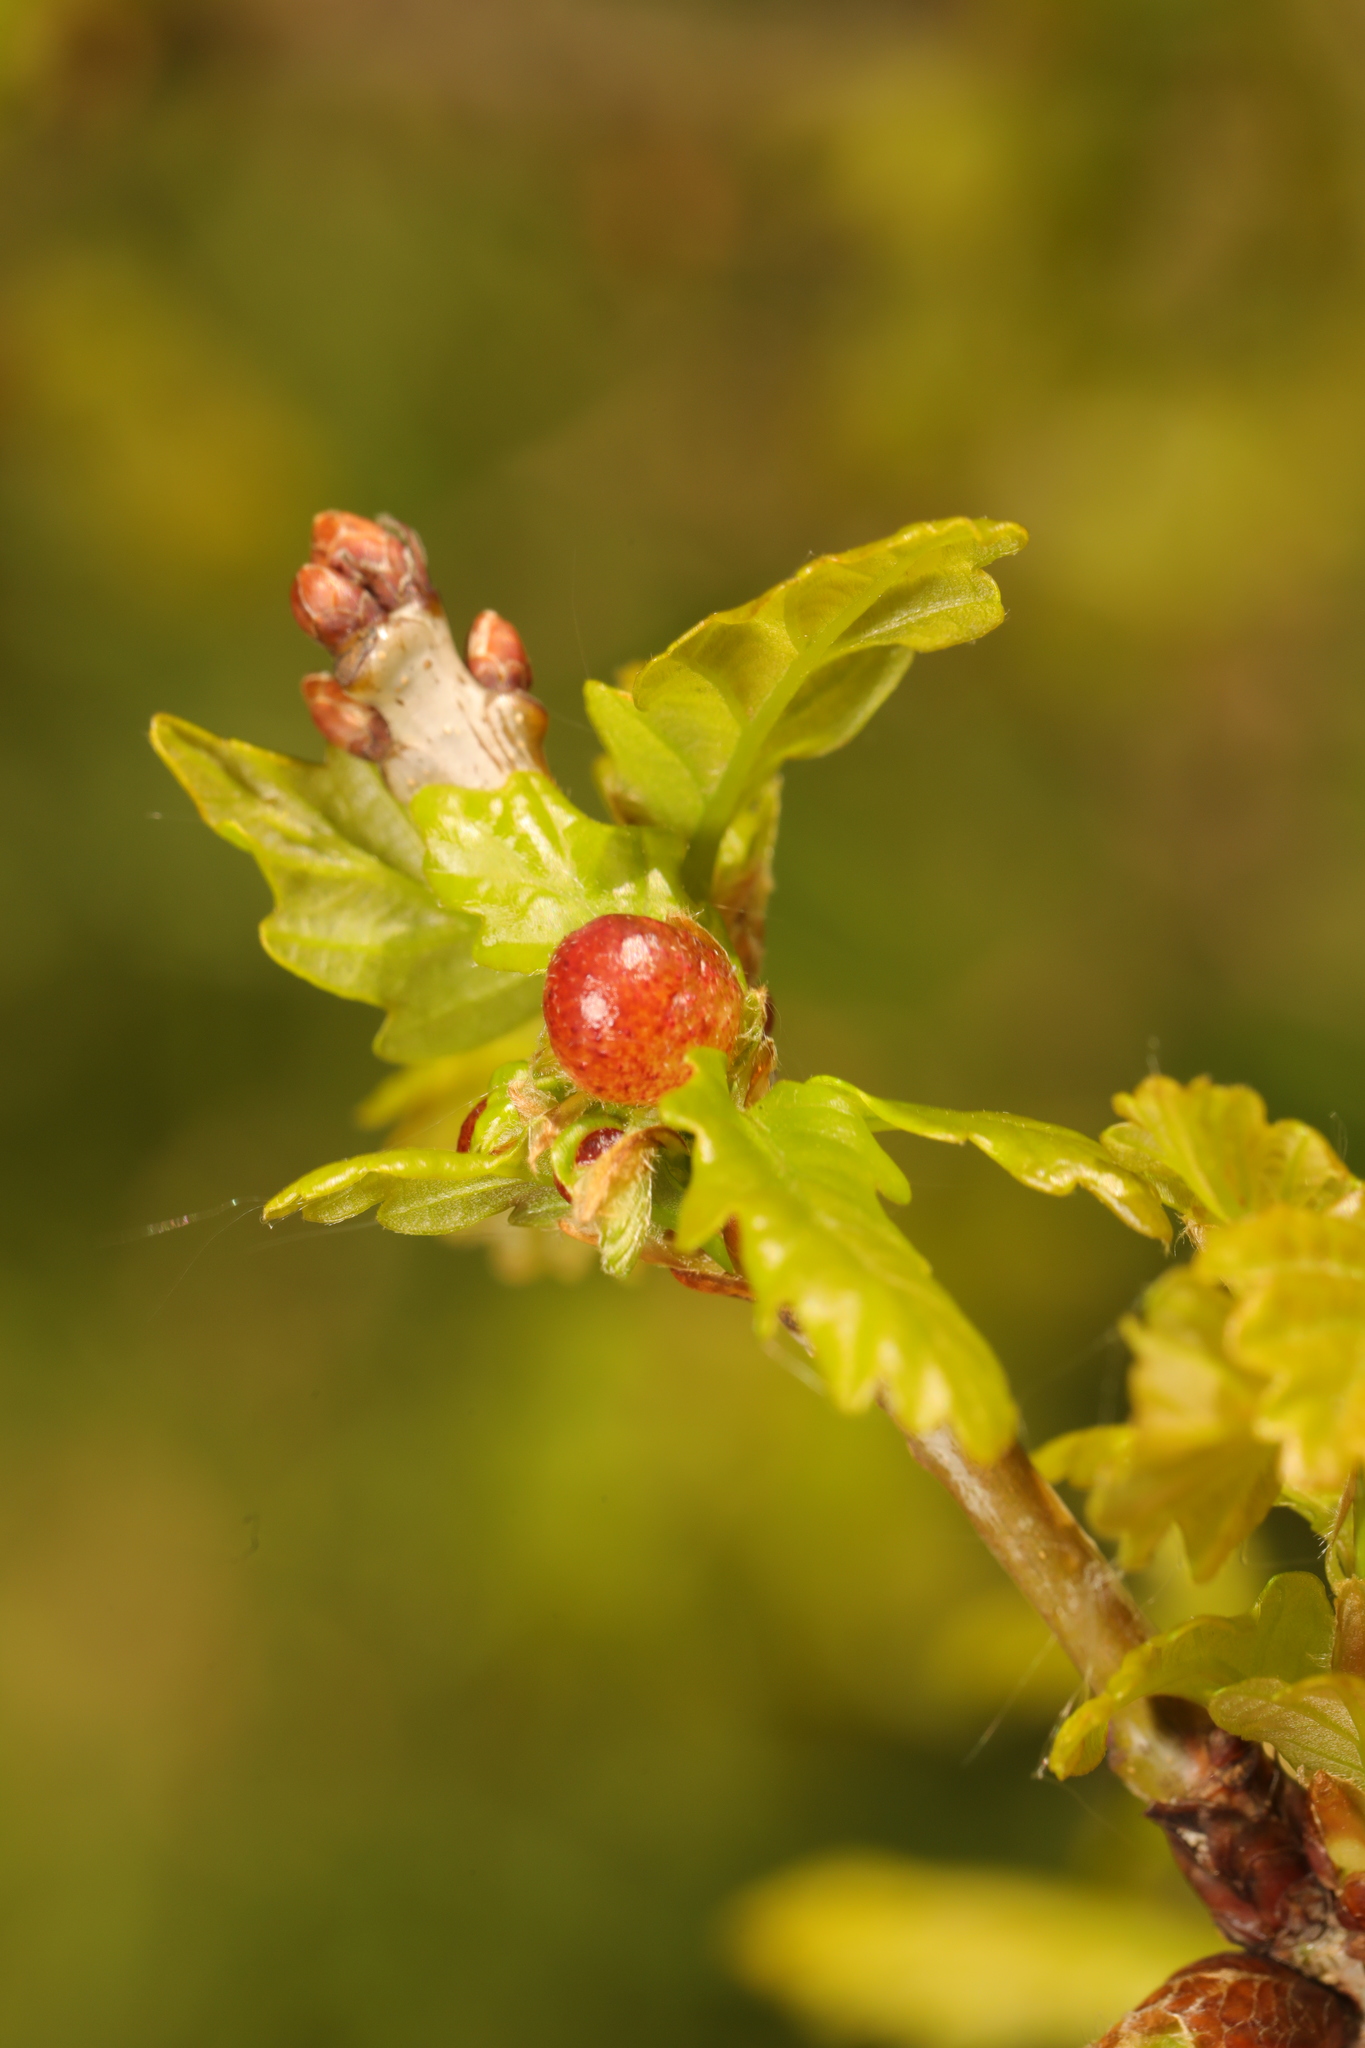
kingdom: Animalia
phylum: Arthropoda
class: Insecta
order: Hymenoptera
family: Cynipidae
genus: Neuroterus
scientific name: Neuroterus quercusbaccarum
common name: Common spangle gall
